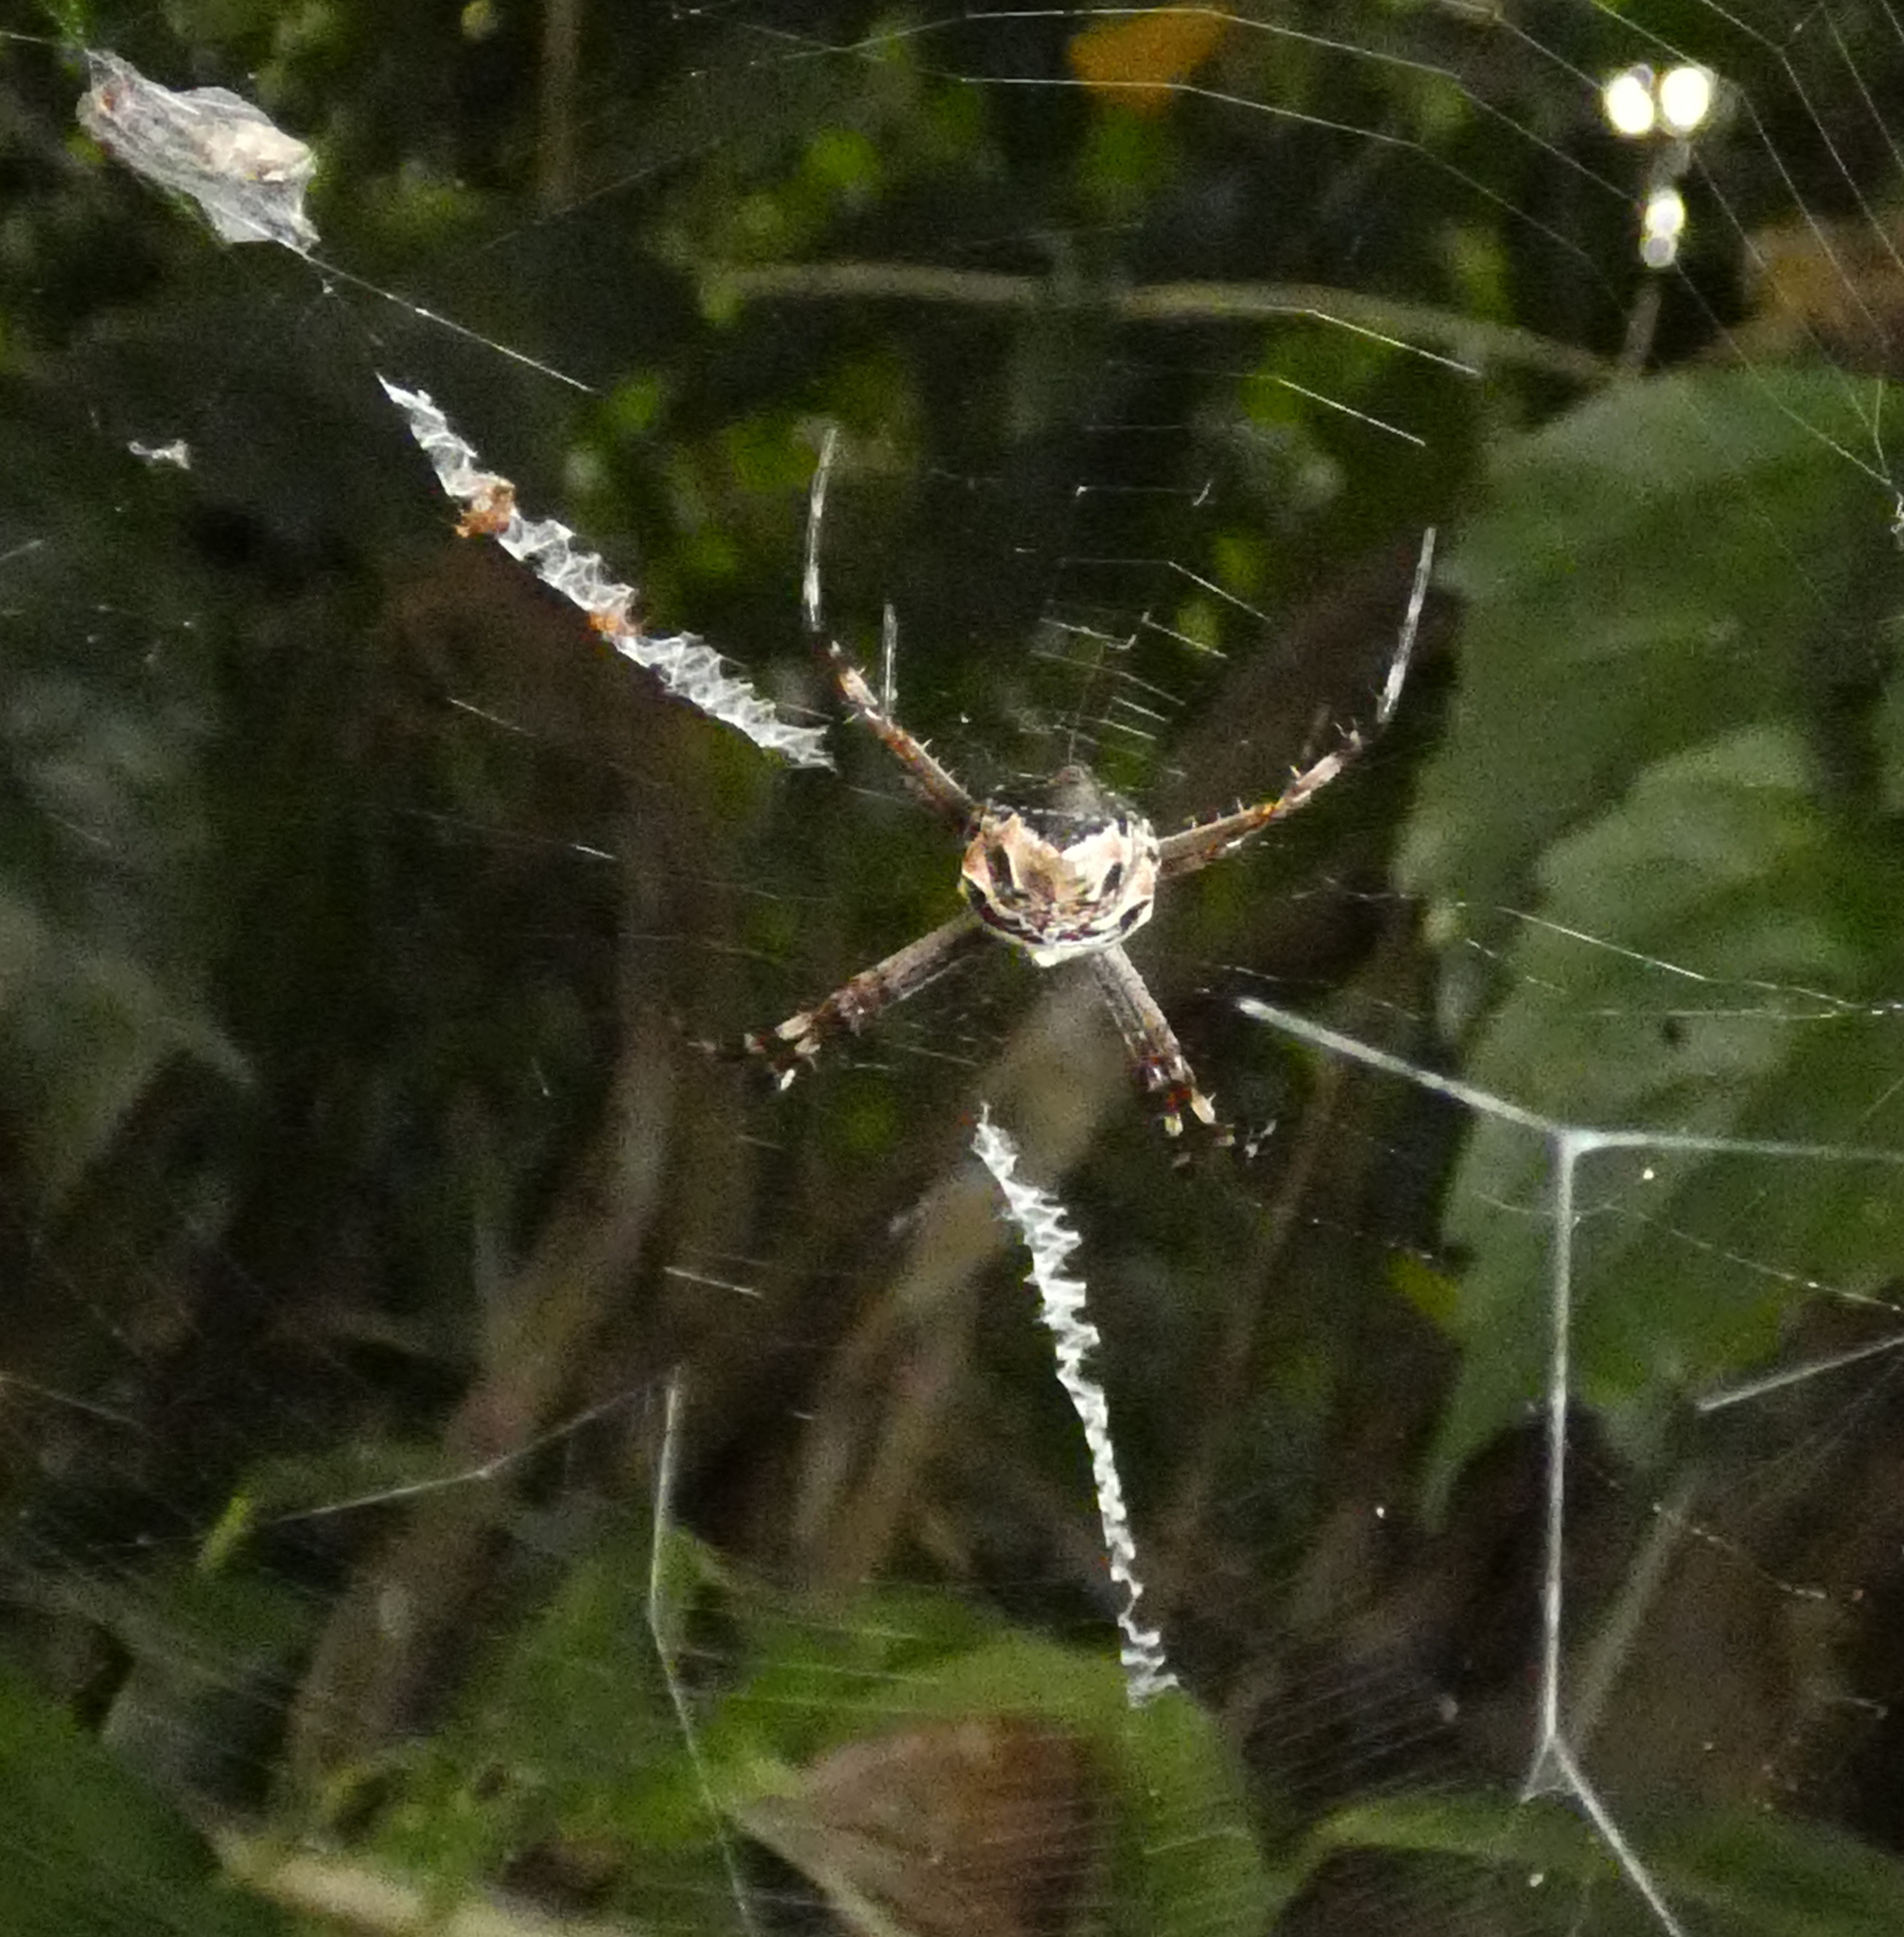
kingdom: Animalia
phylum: Arthropoda
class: Arachnida
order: Araneae
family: Araneidae
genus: Argiope
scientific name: Argiope argentata
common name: Orb weavers
